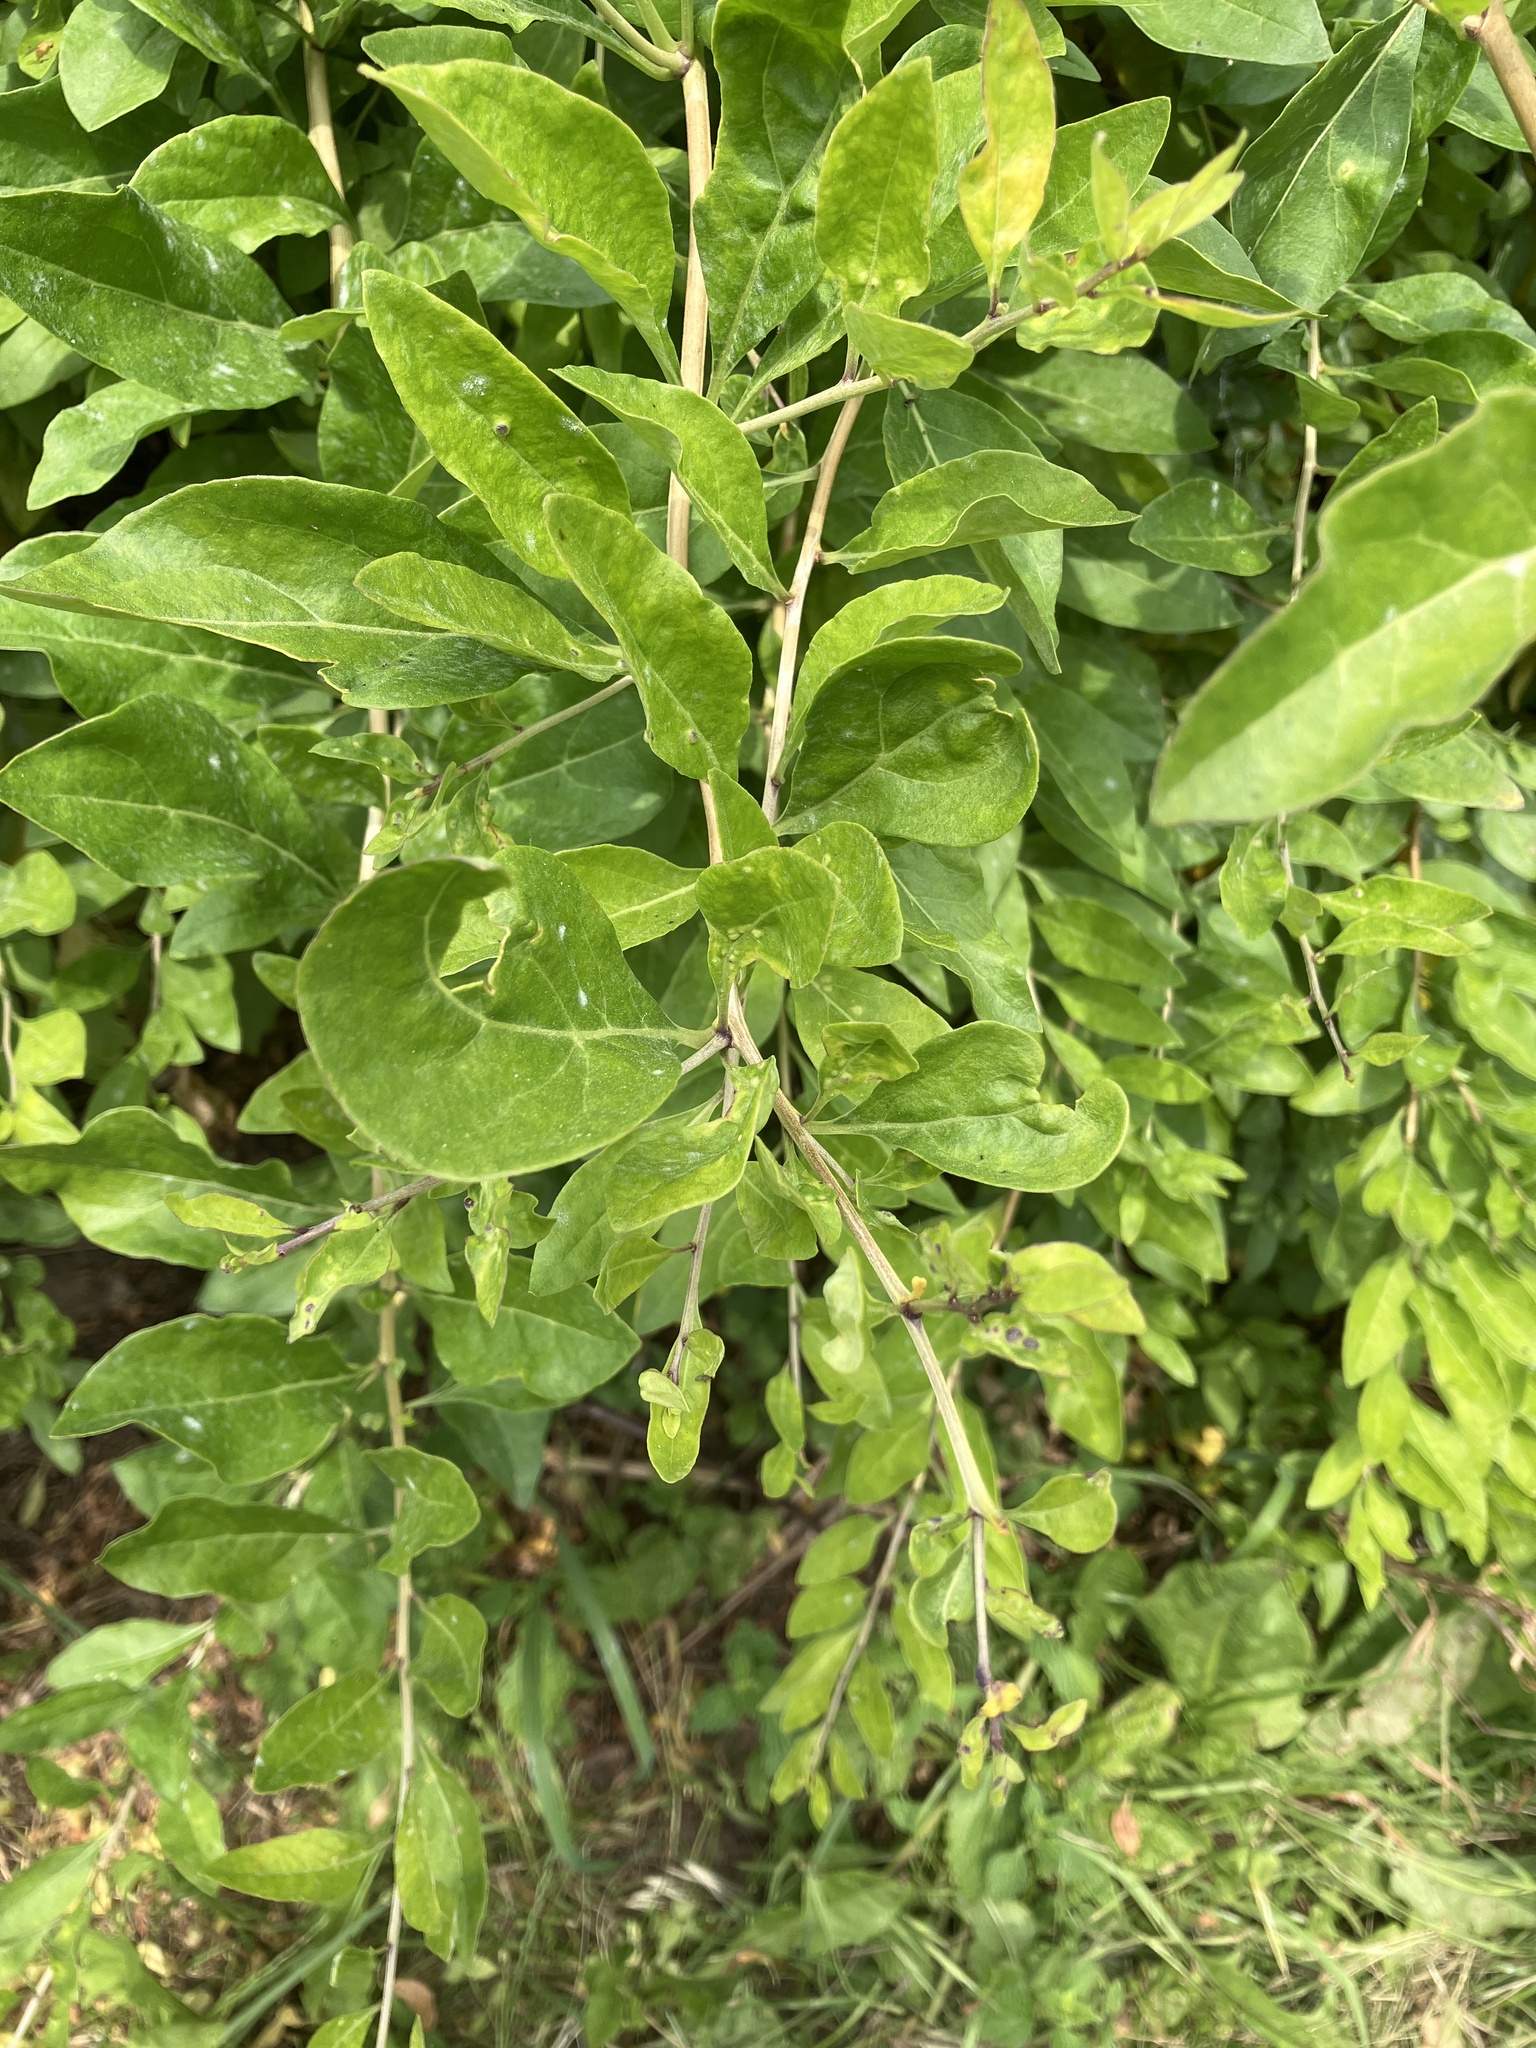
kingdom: Plantae
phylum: Tracheophyta
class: Magnoliopsida
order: Solanales
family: Solanaceae
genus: Lycium
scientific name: Lycium barbarum
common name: Duke of argyll's teaplant
